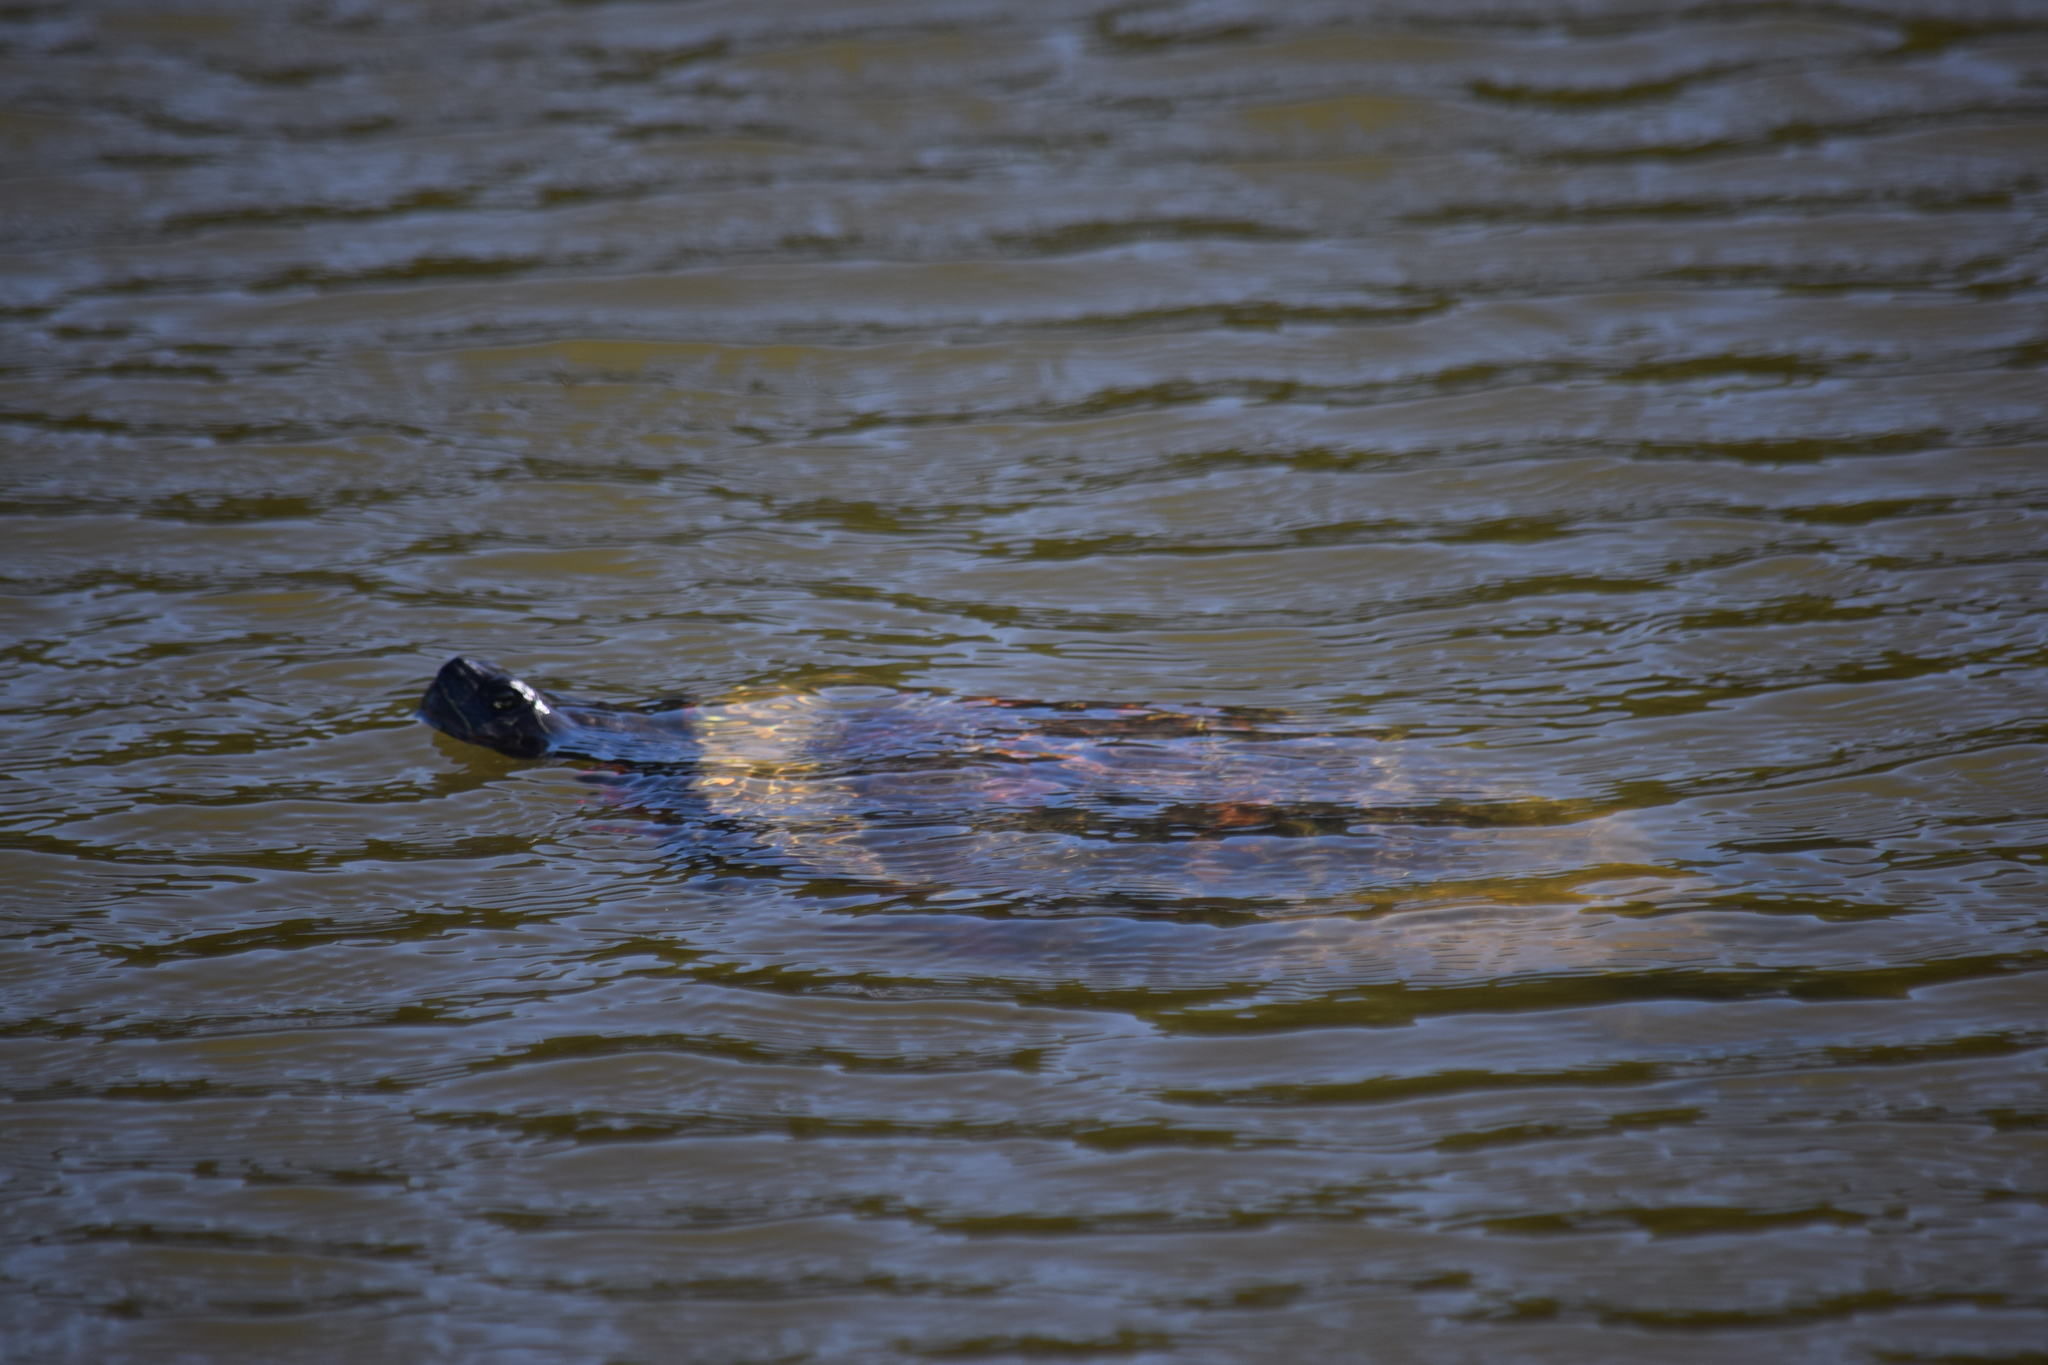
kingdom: Animalia
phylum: Chordata
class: Testudines
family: Emydidae
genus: Pseudemys
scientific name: Pseudemys rubriventris
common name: American red-bellied turtle
